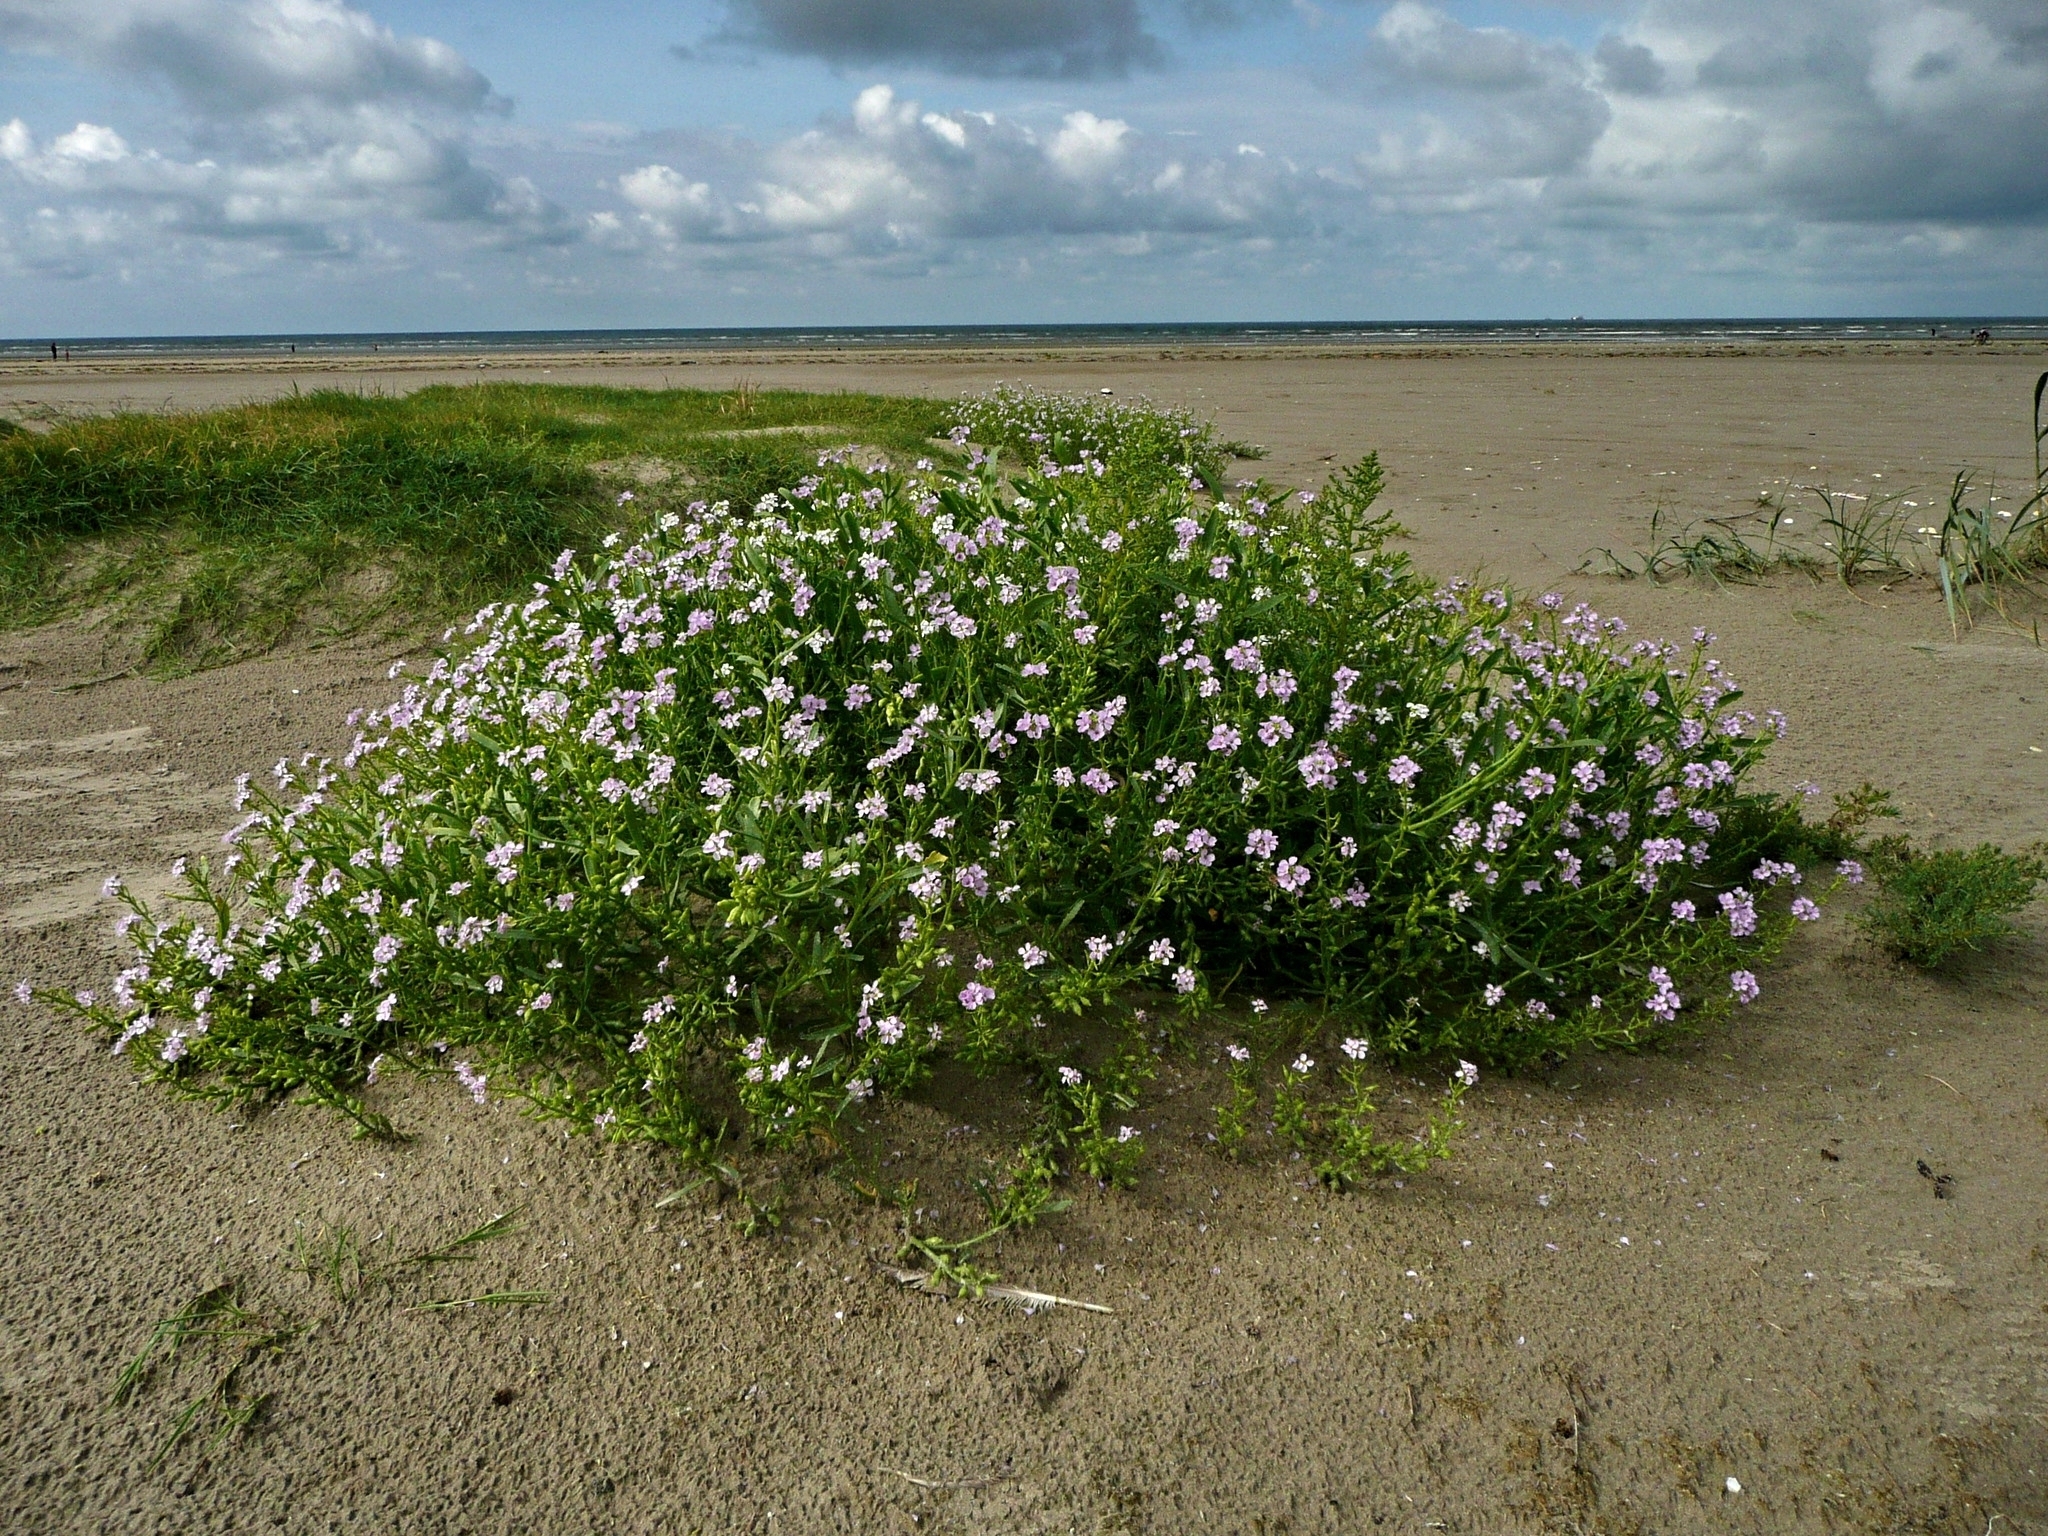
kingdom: Plantae
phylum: Tracheophyta
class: Magnoliopsida
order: Brassicales
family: Brassicaceae
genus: Cakile
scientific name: Cakile maritima
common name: Sea rocket
